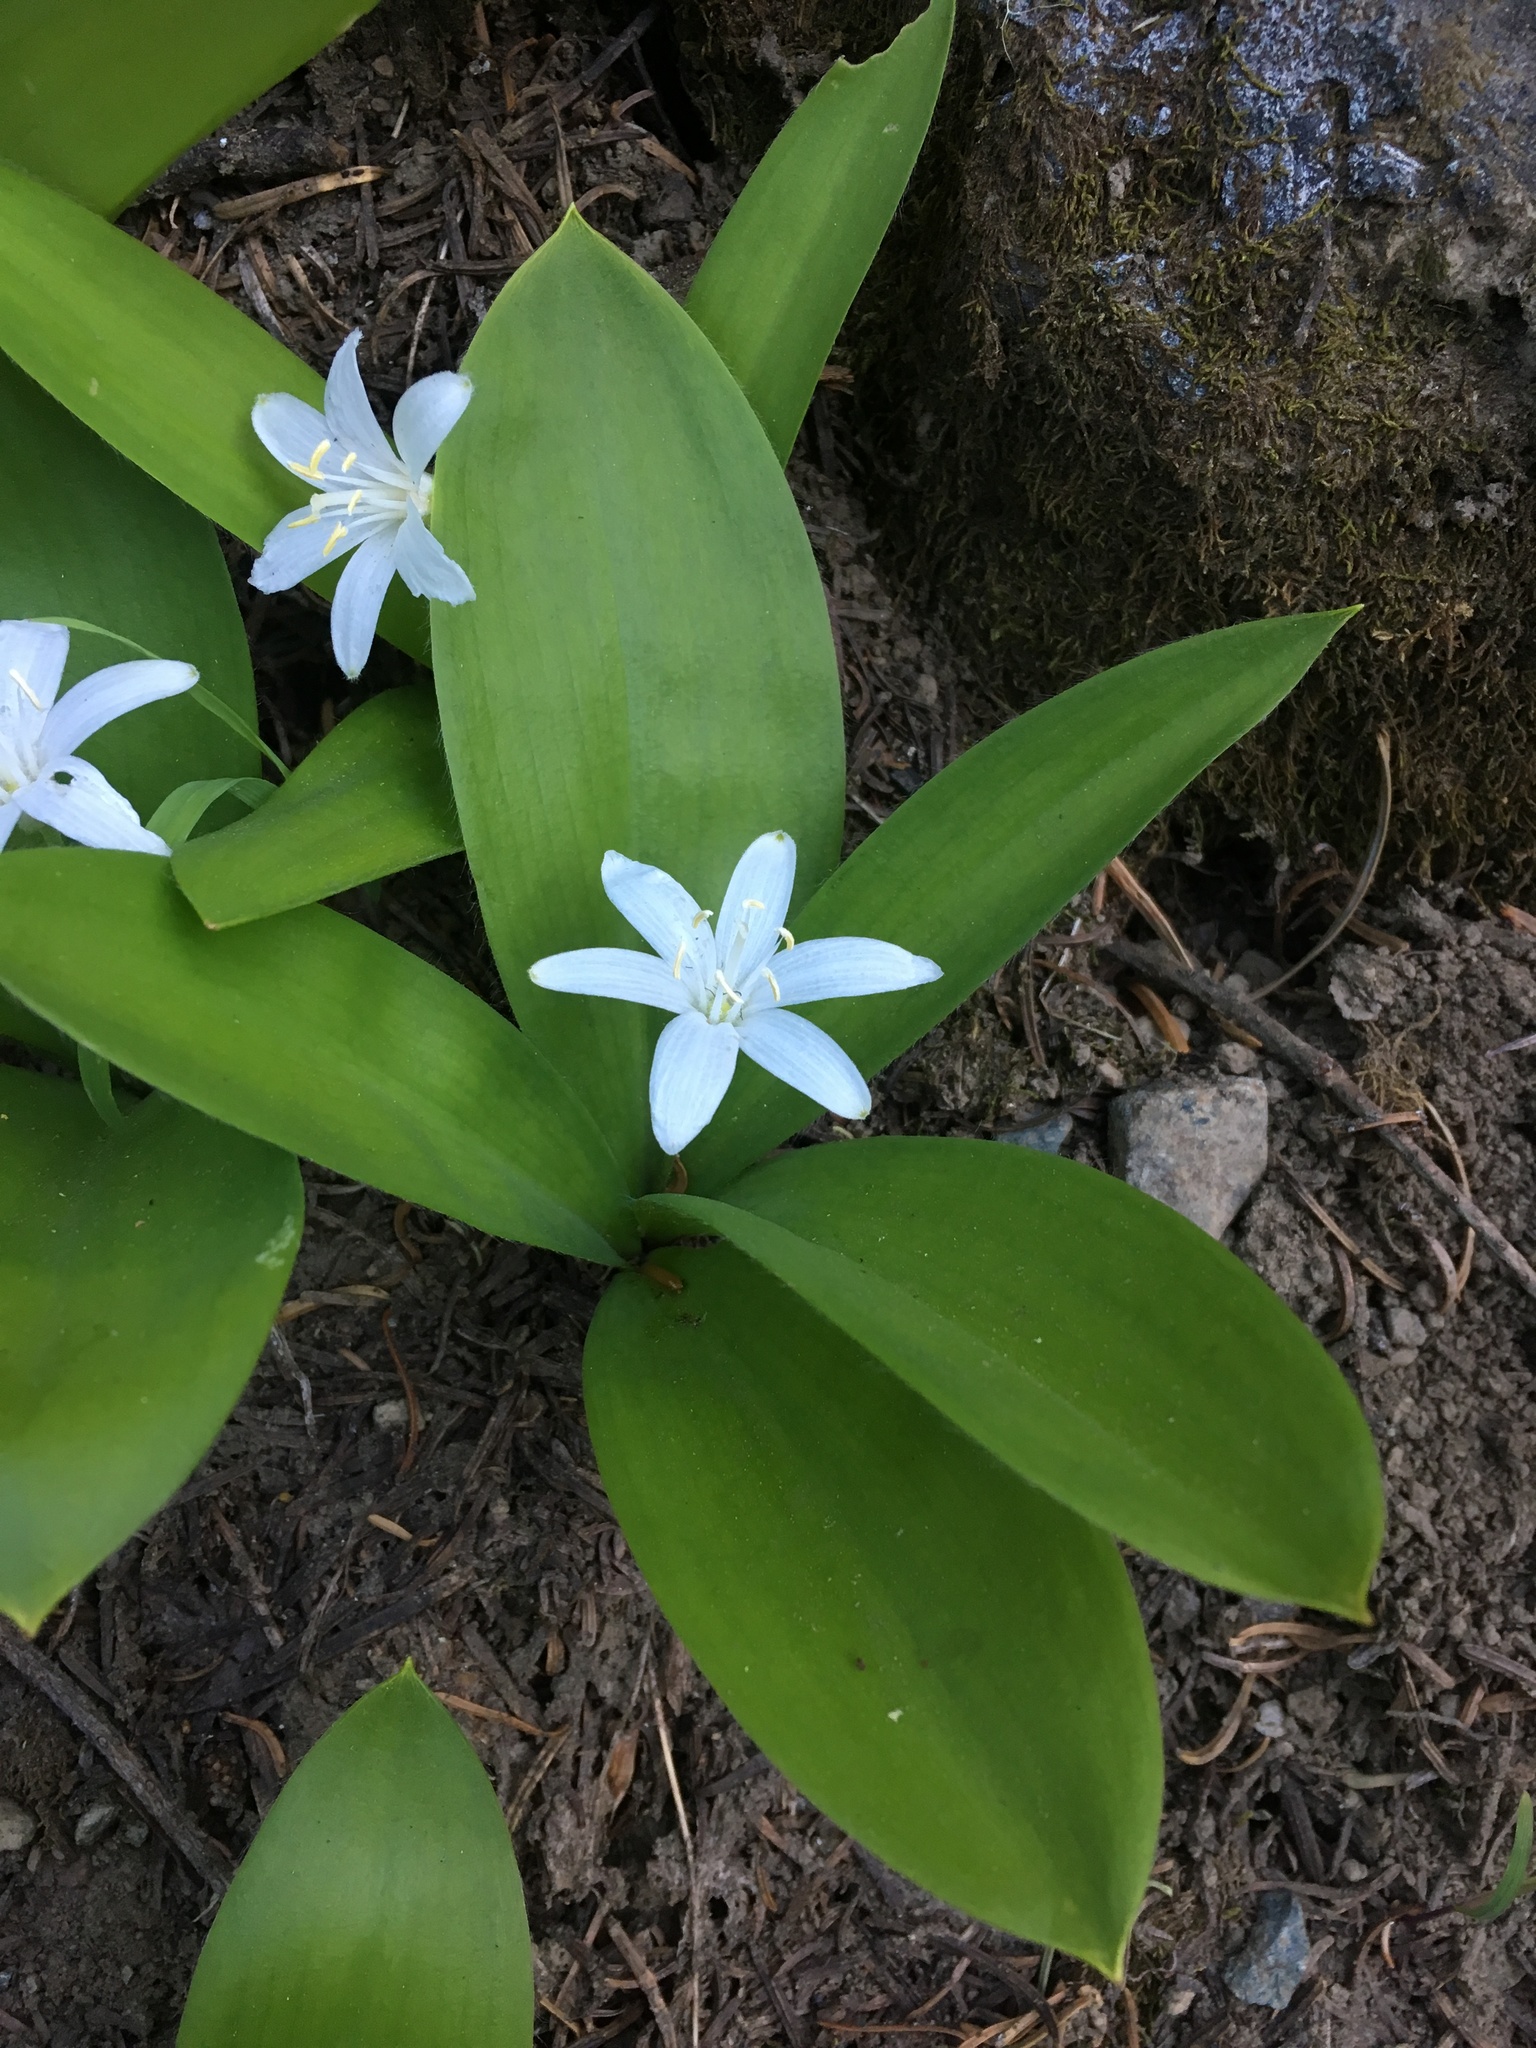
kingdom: Plantae
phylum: Tracheophyta
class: Liliopsida
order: Liliales
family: Liliaceae
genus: Clintonia
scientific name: Clintonia uniflora
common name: Queen's cup
